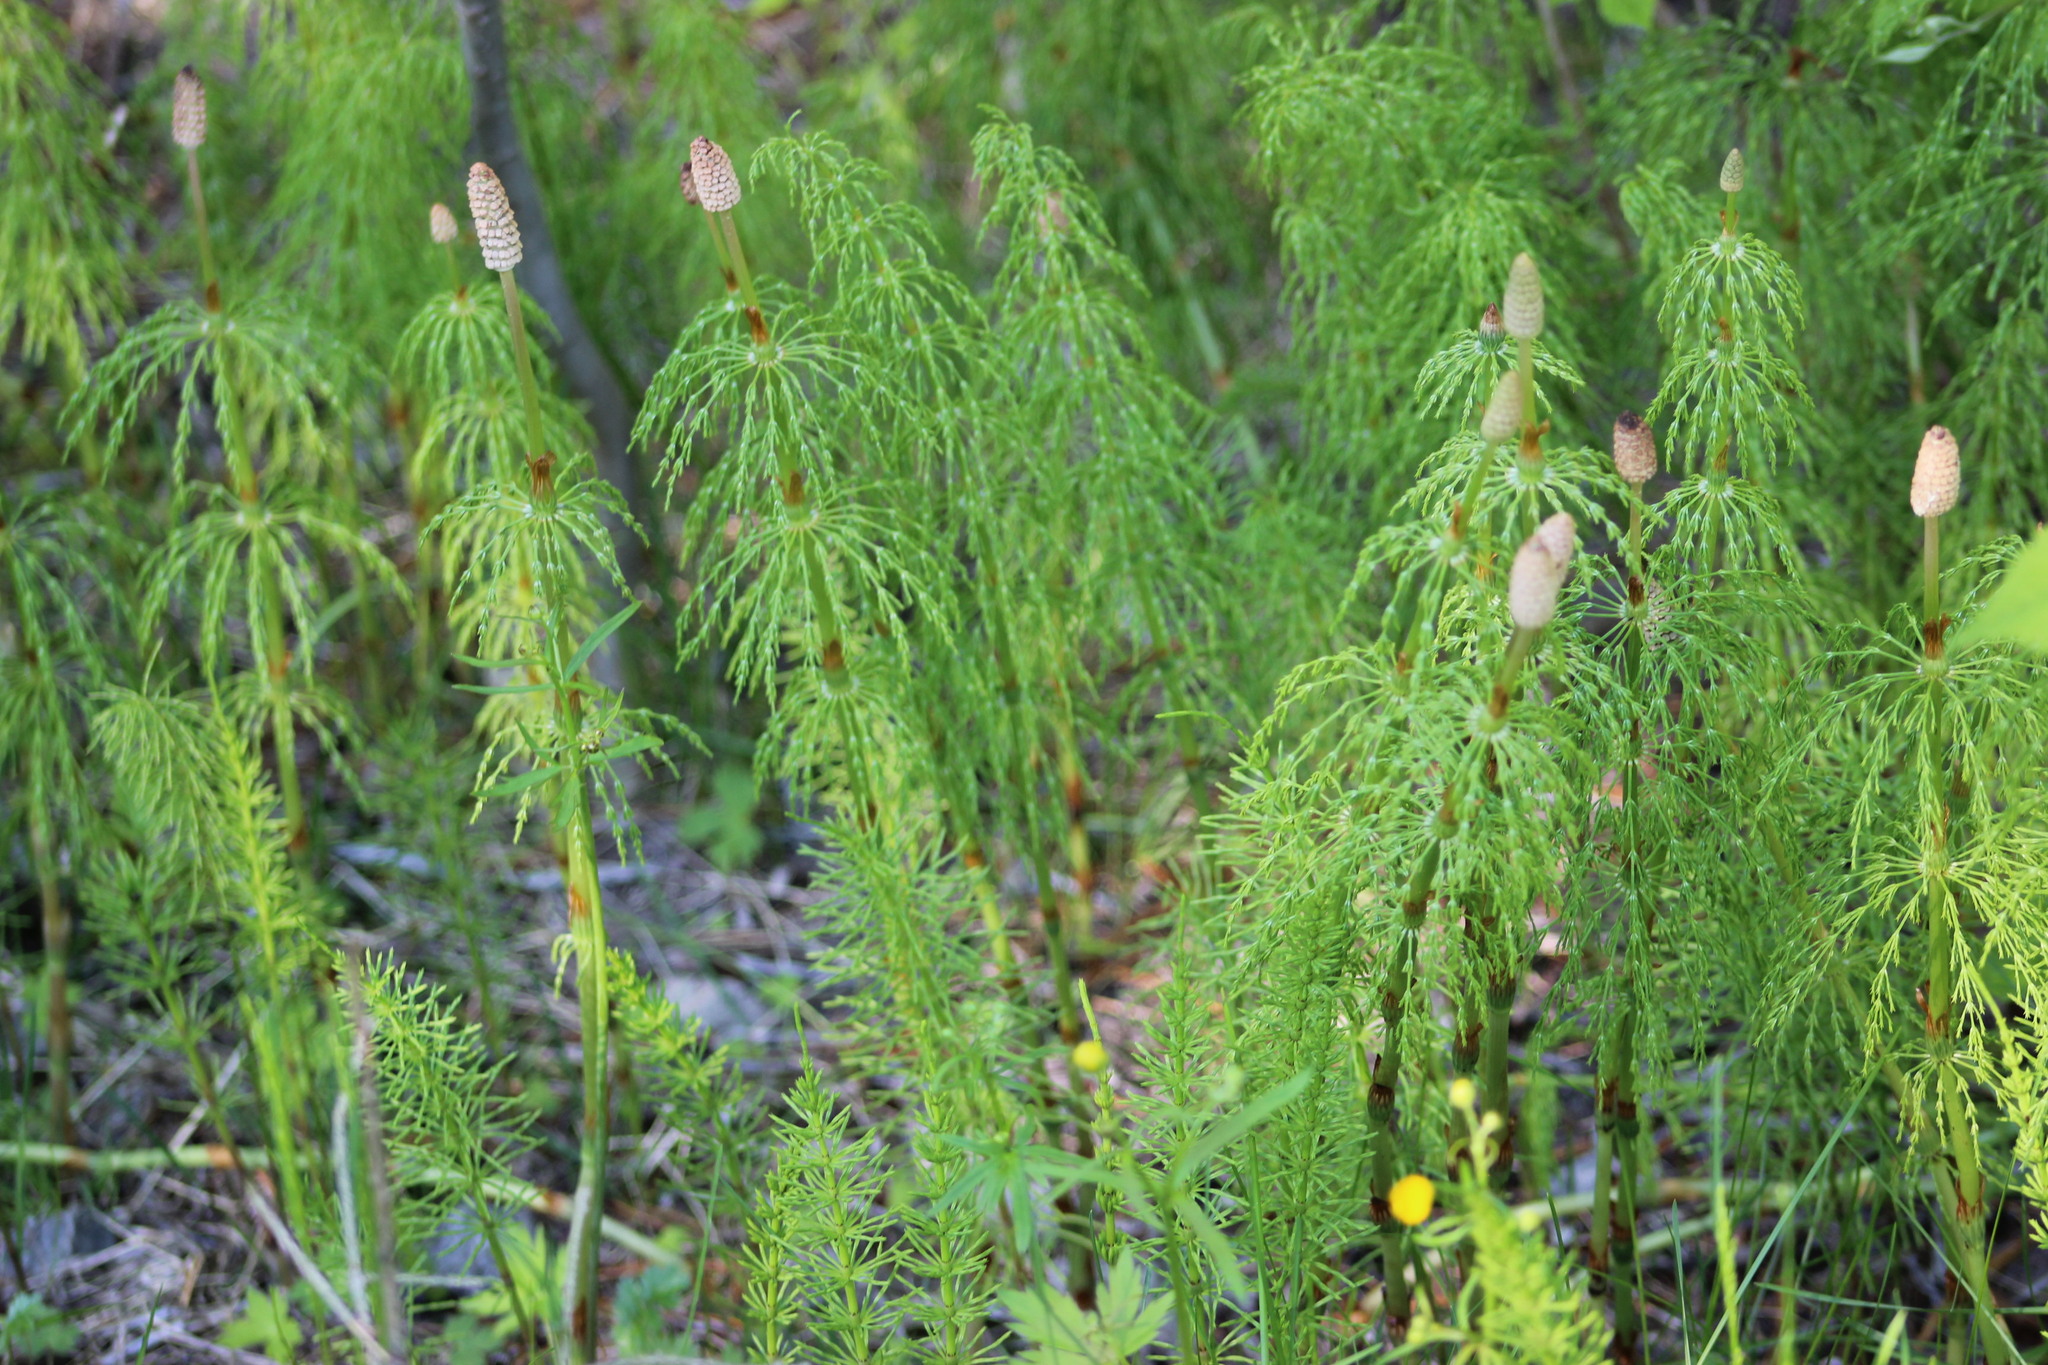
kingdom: Plantae
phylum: Tracheophyta
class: Polypodiopsida
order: Equisetales
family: Equisetaceae
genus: Equisetum
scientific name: Equisetum sylvaticum
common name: Wood horsetail
